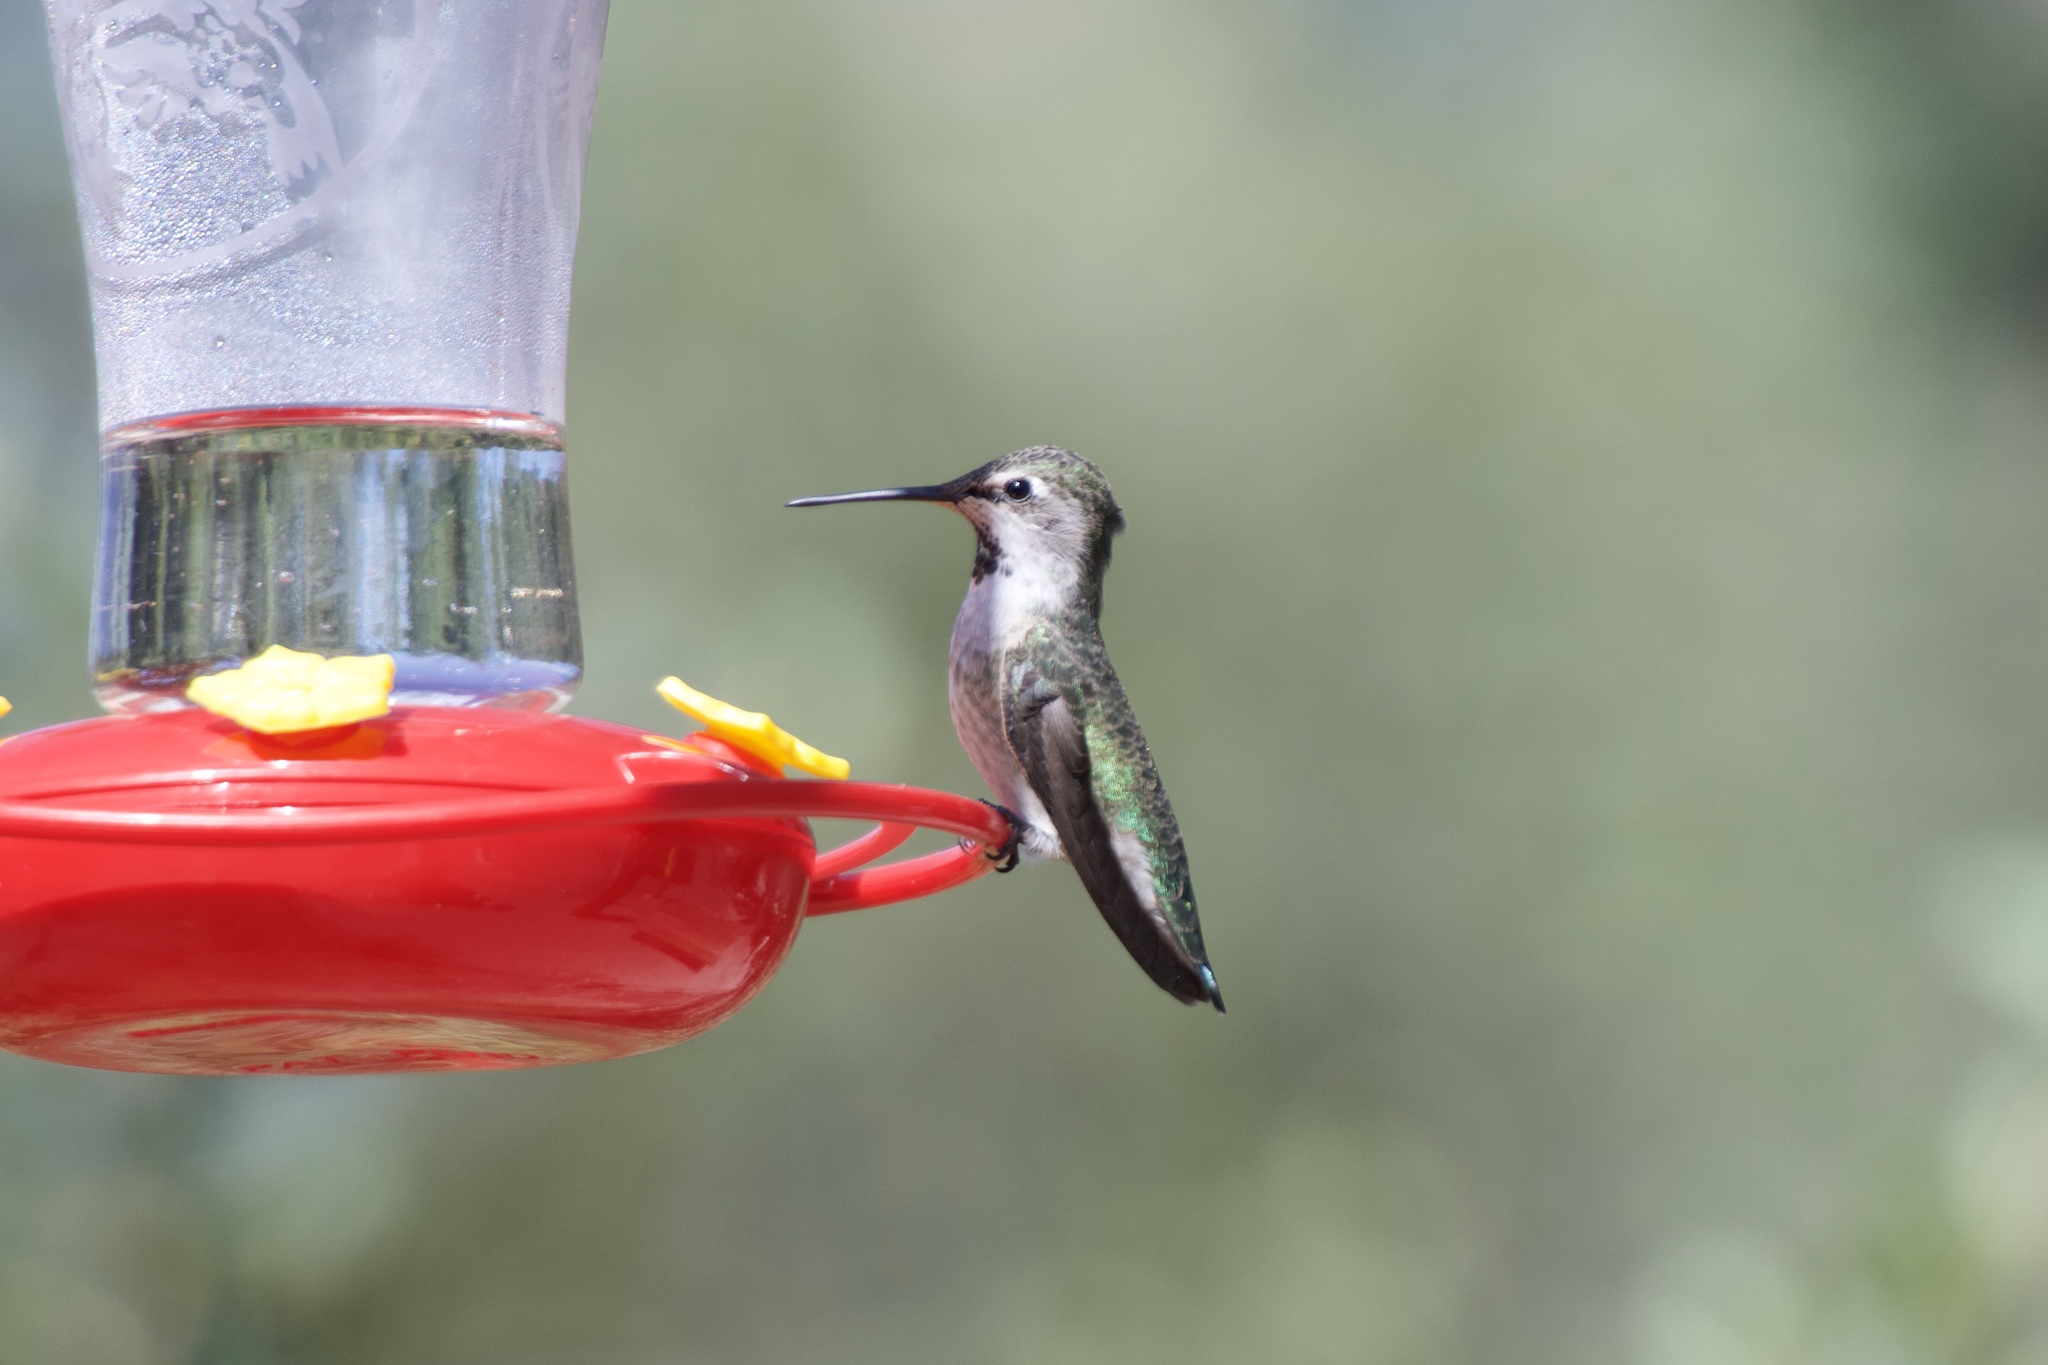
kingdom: Animalia
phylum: Chordata
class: Aves
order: Apodiformes
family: Trochilidae
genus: Calypte
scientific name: Calypte anna
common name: Anna's hummingbird
